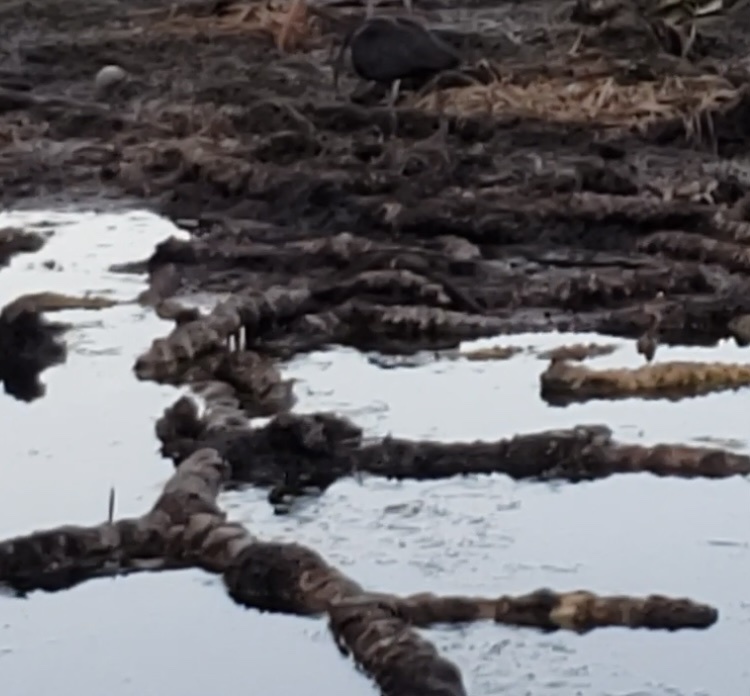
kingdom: Animalia
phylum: Chordata
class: Aves
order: Pelecaniformes
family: Threskiornithidae
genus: Plegadis
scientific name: Plegadis falcinellus
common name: Glossy ibis
